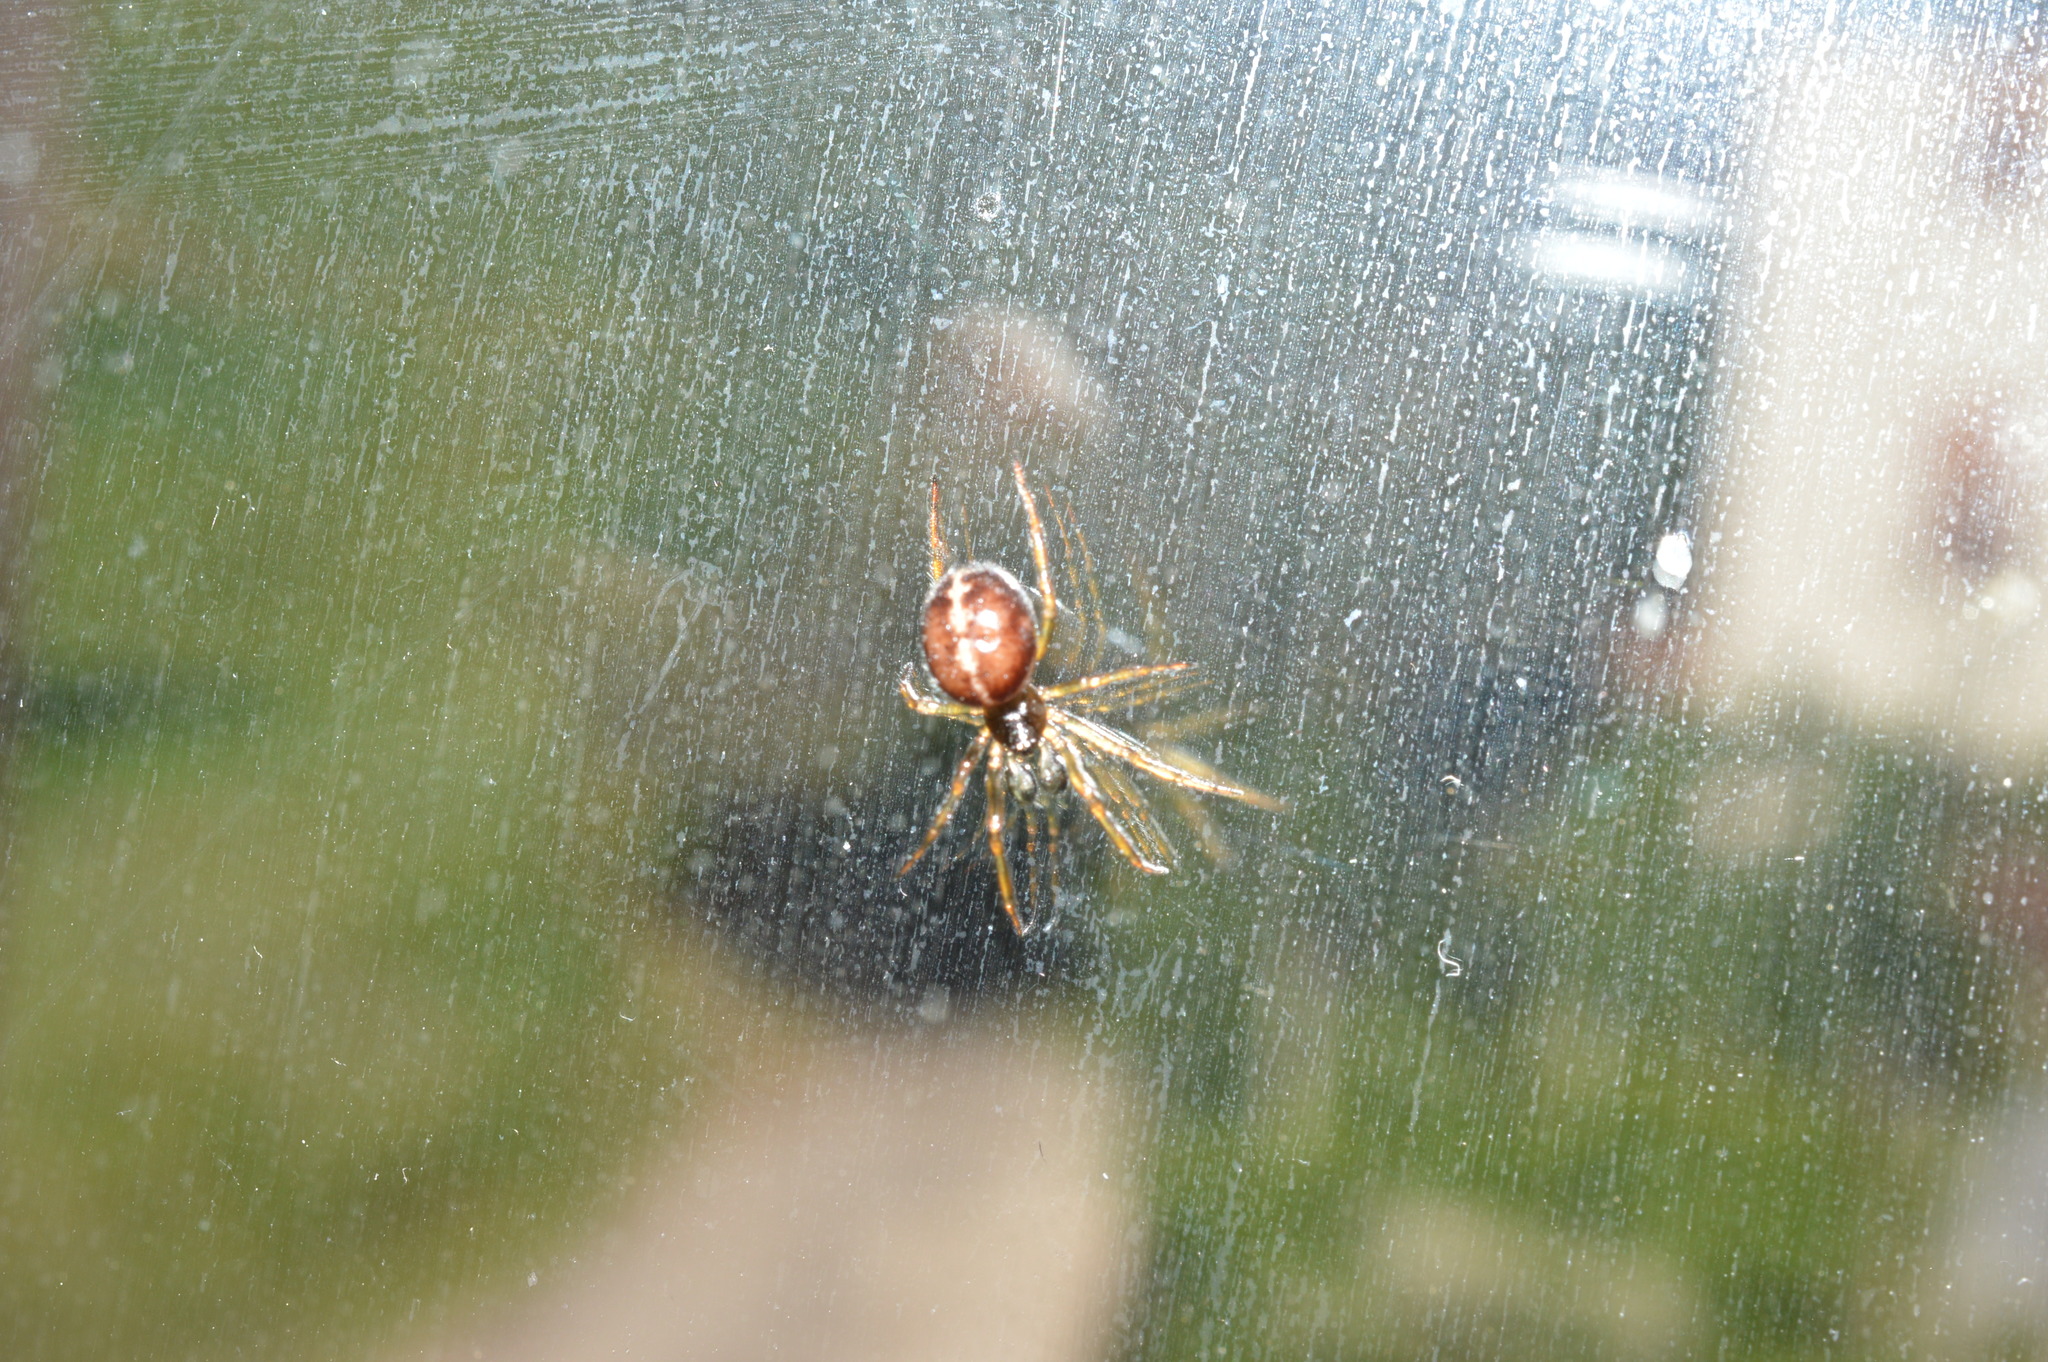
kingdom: Animalia
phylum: Arthropoda
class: Arachnida
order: Araneae
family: Theridiidae
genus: Steatoda
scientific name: Steatoda bipunctata
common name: False widow
